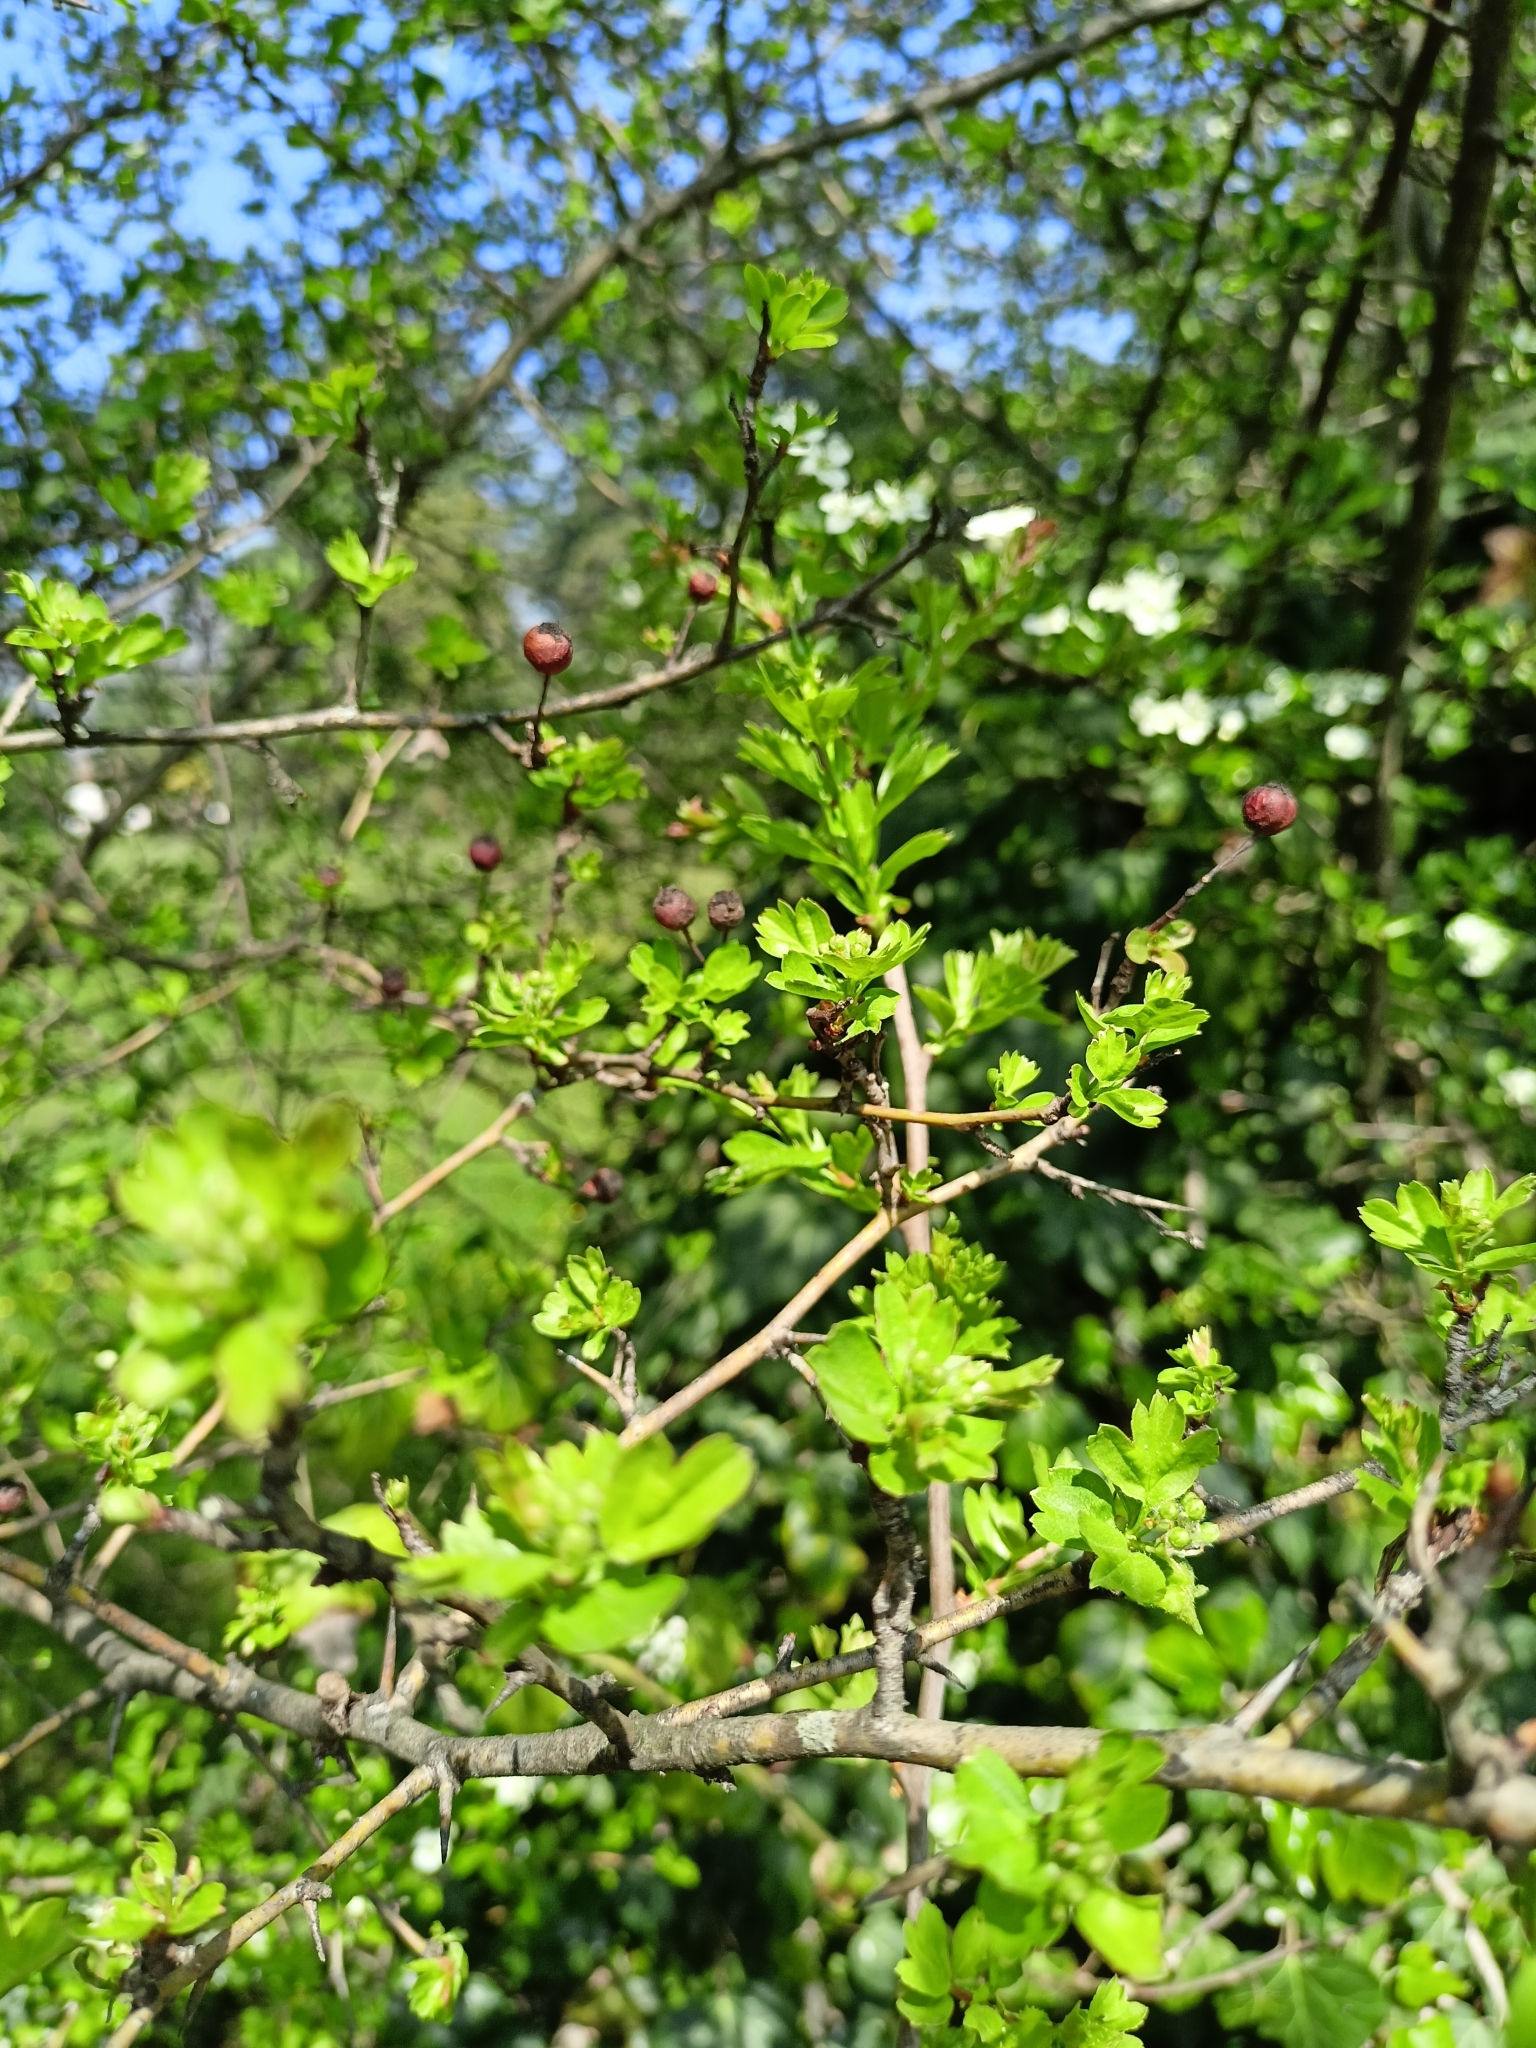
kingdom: Plantae
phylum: Tracheophyta
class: Magnoliopsida
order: Rosales
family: Rosaceae
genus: Crataegus
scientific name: Crataegus monogyna
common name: Hawthorn
